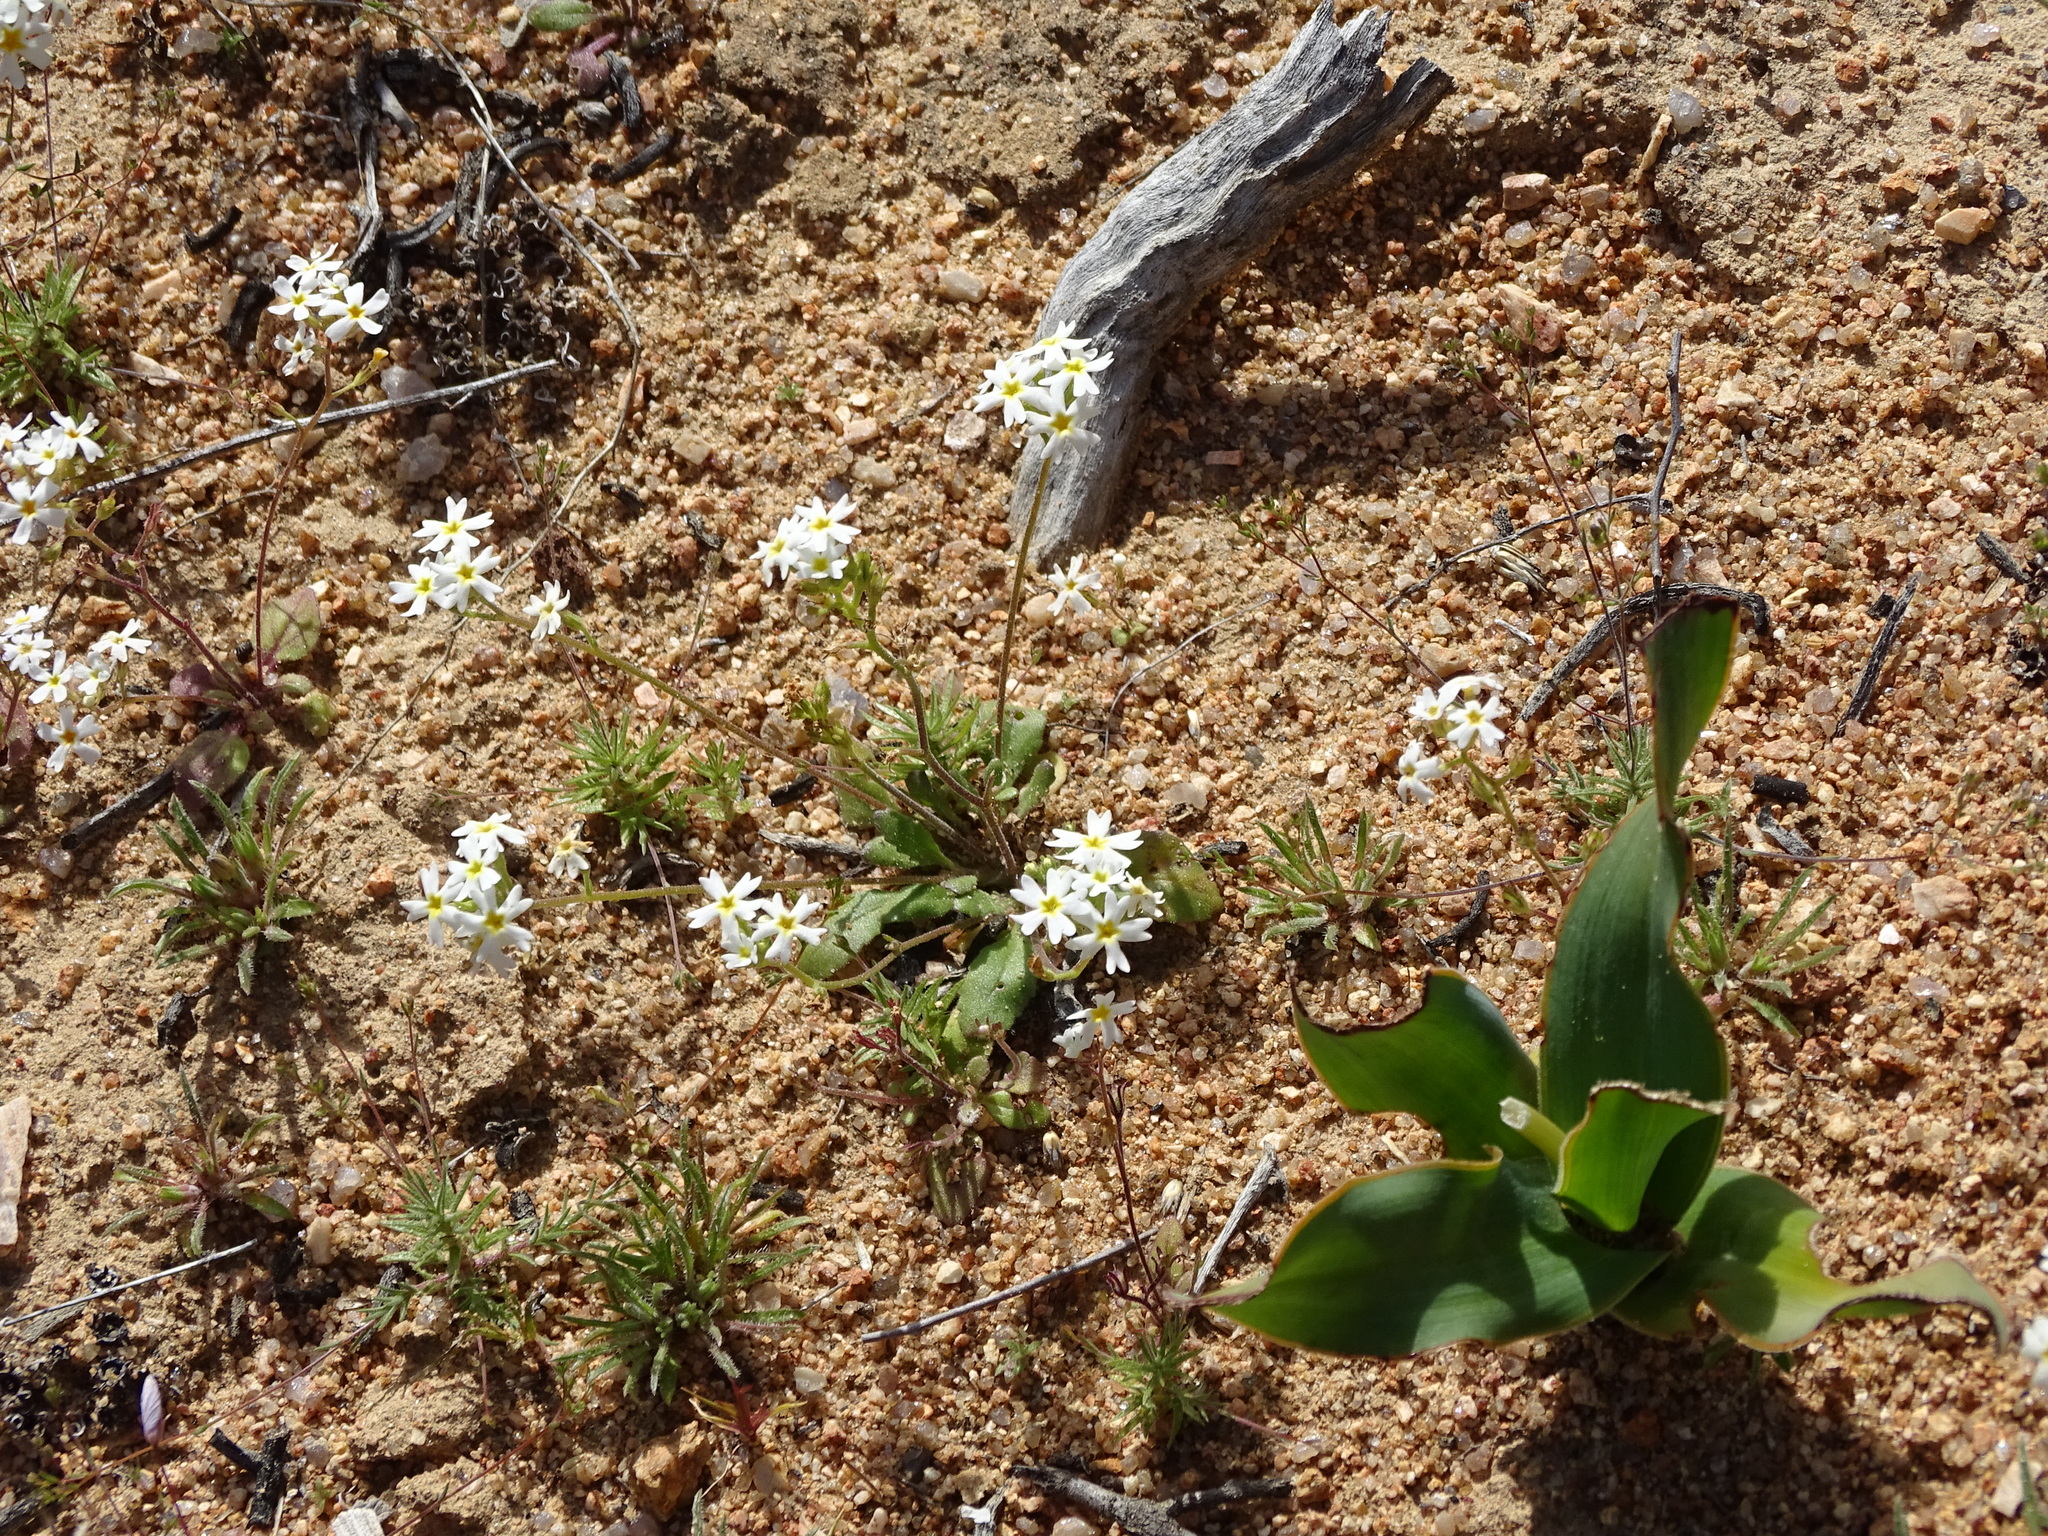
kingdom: Plantae
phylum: Tracheophyta
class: Magnoliopsida
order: Lamiales
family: Scrophulariaceae
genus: Zaluzianskya
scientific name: Zaluzianskya affinis
